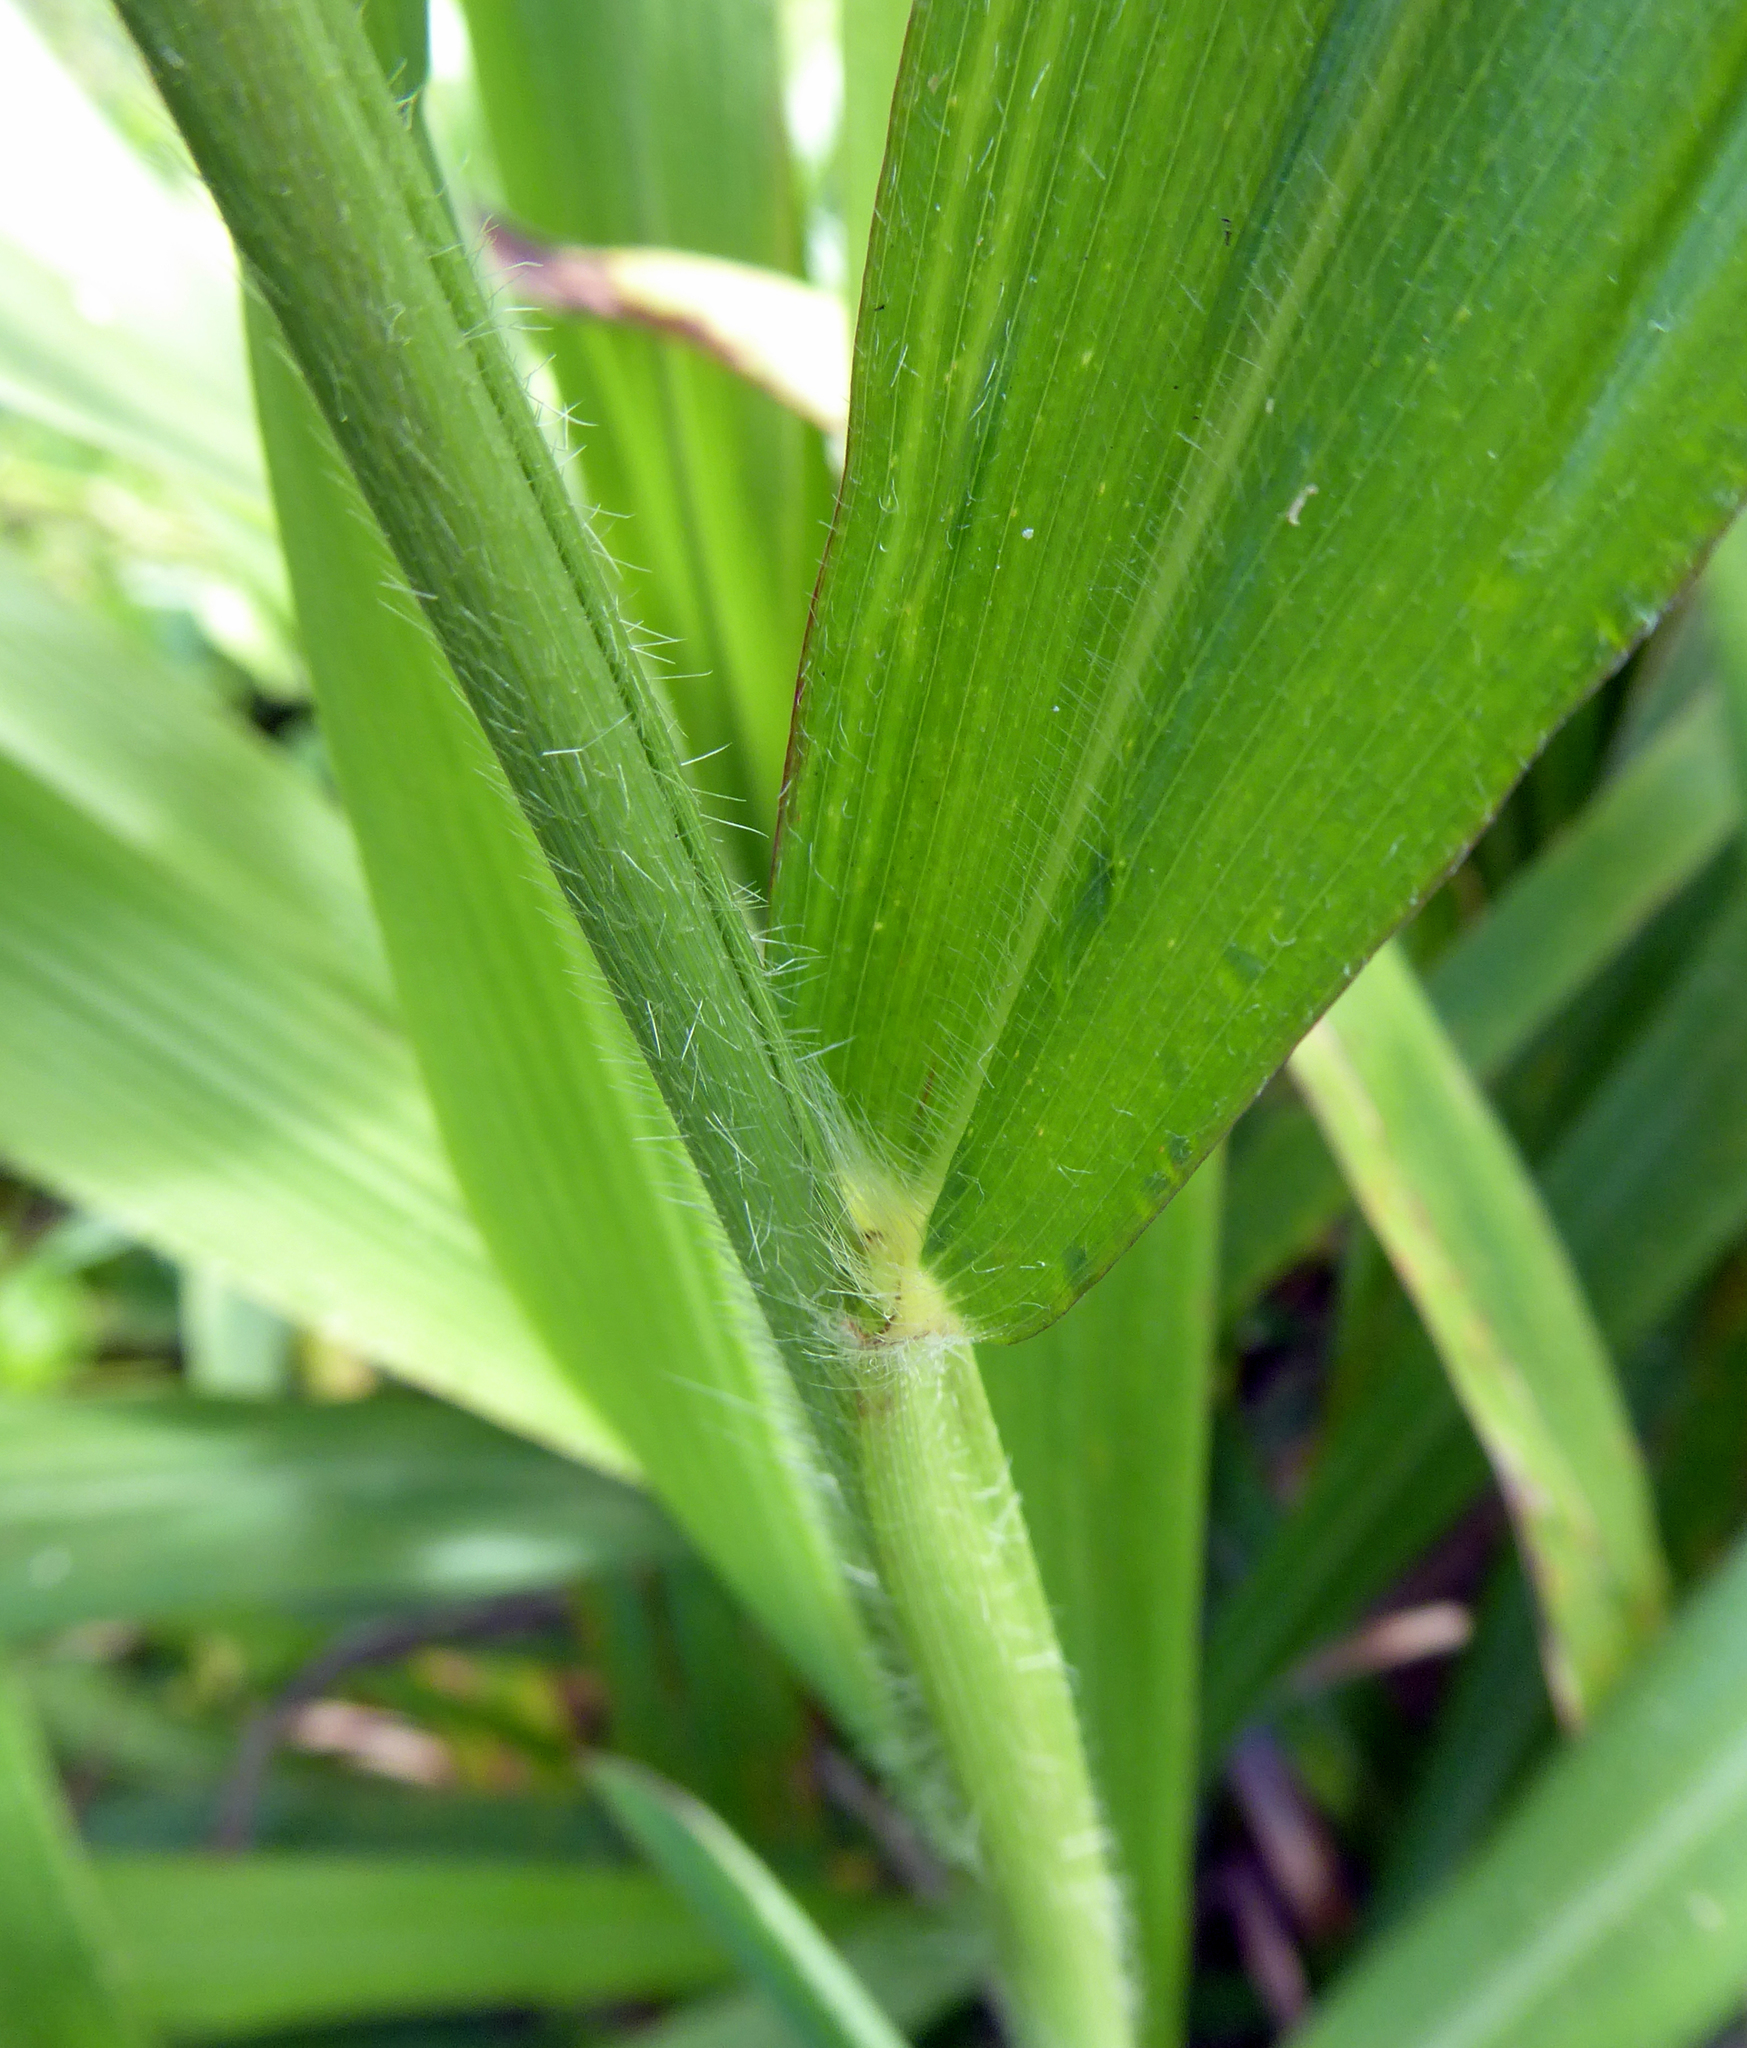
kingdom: Plantae
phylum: Tracheophyta
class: Liliopsida
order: Poales
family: Poaceae
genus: Paspalum
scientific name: Paspalum paniculatum
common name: Arrocillo
